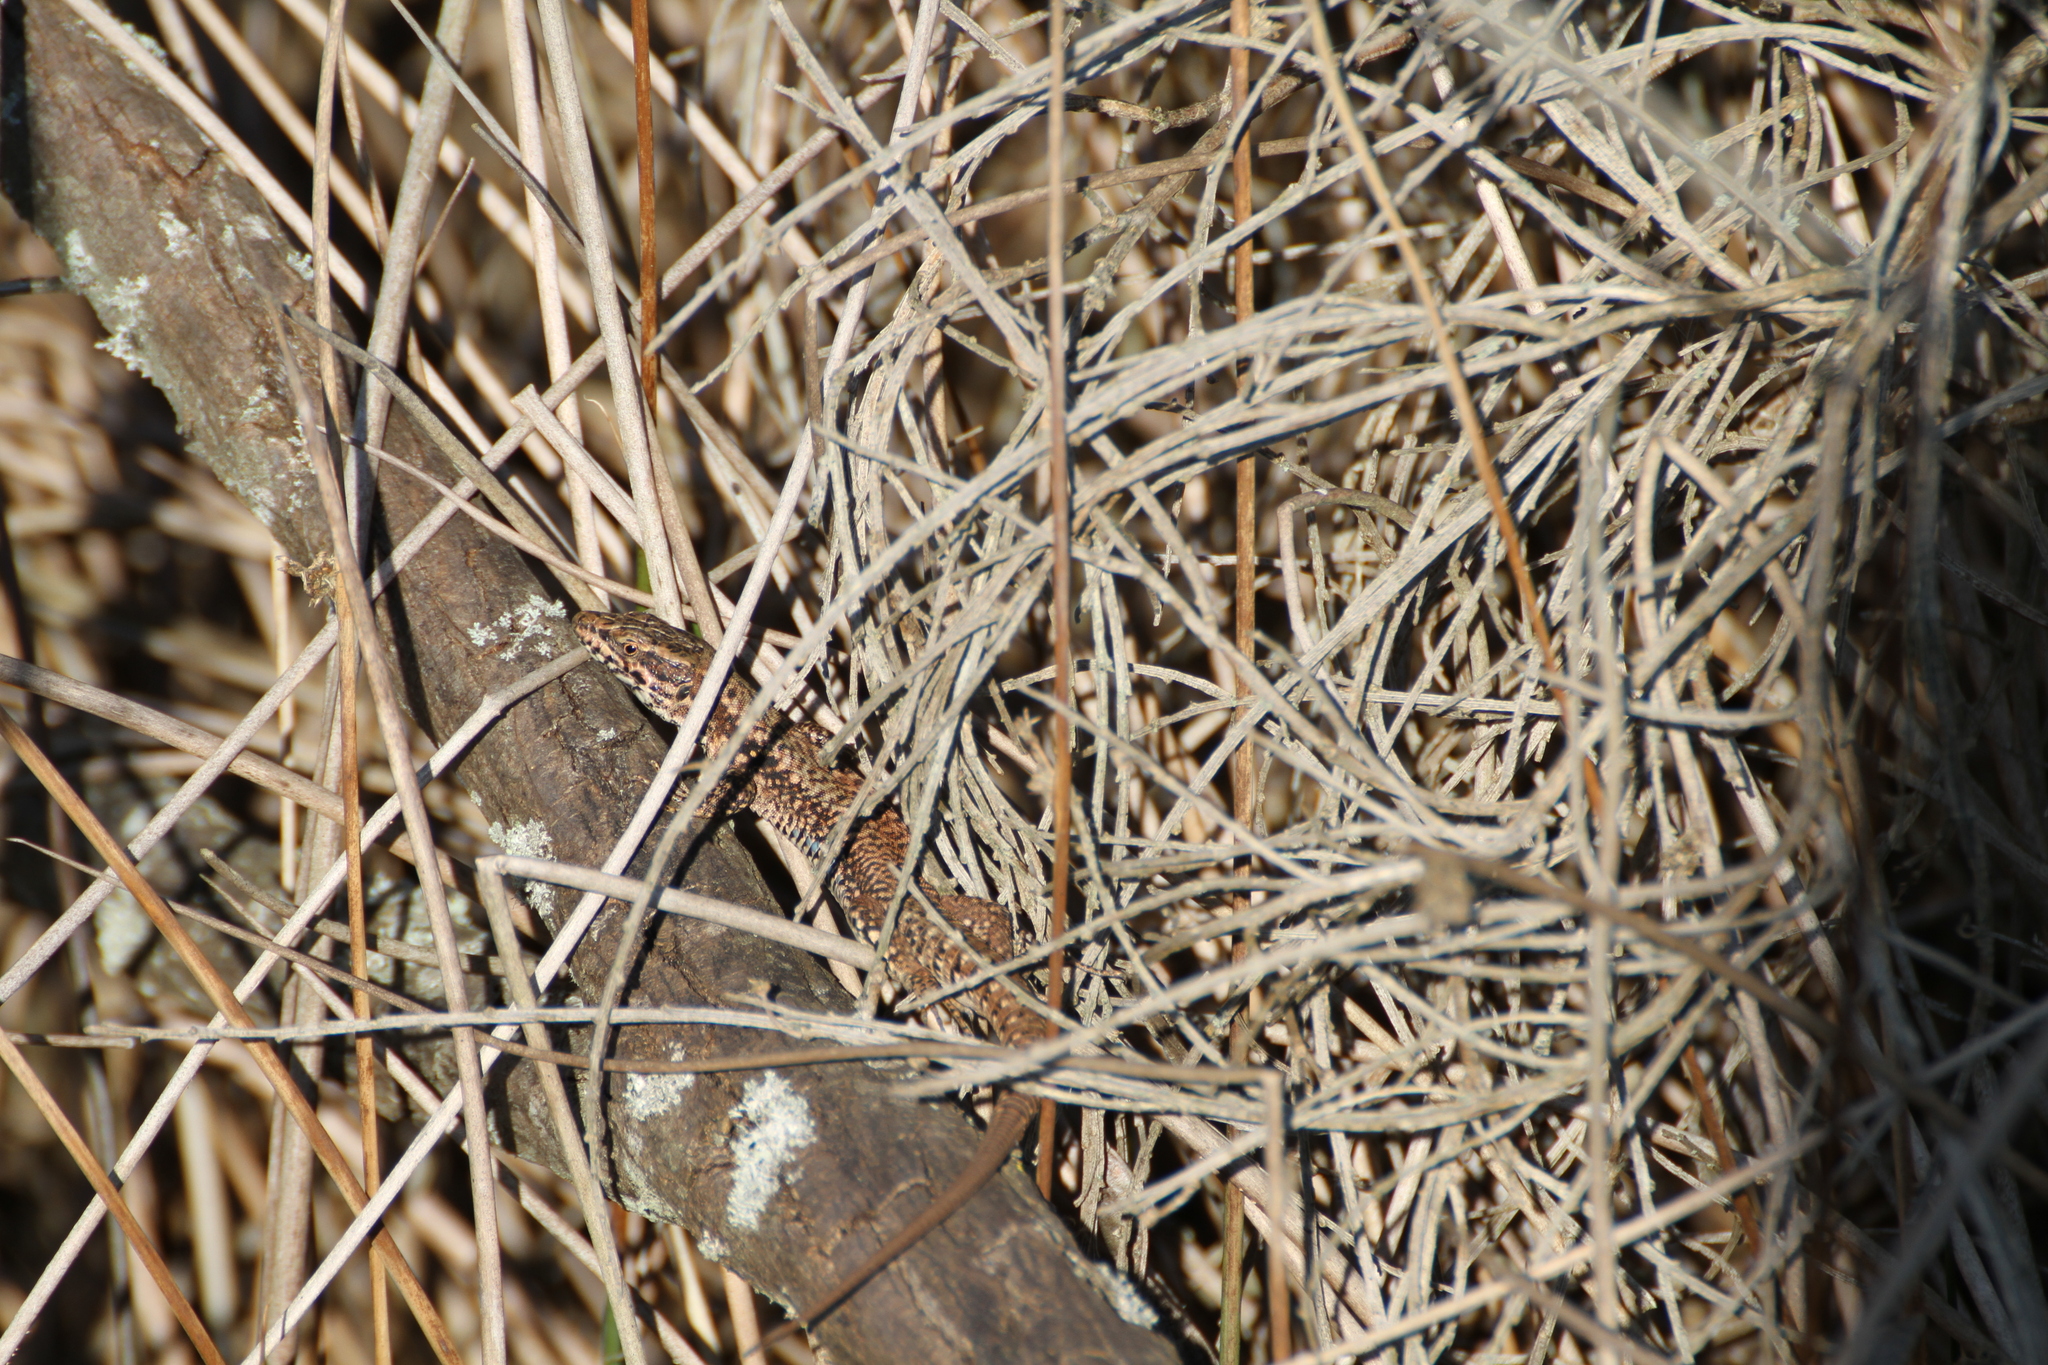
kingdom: Animalia
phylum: Chordata
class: Squamata
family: Lacertidae
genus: Podarcis
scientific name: Podarcis muralis
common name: Common wall lizard
